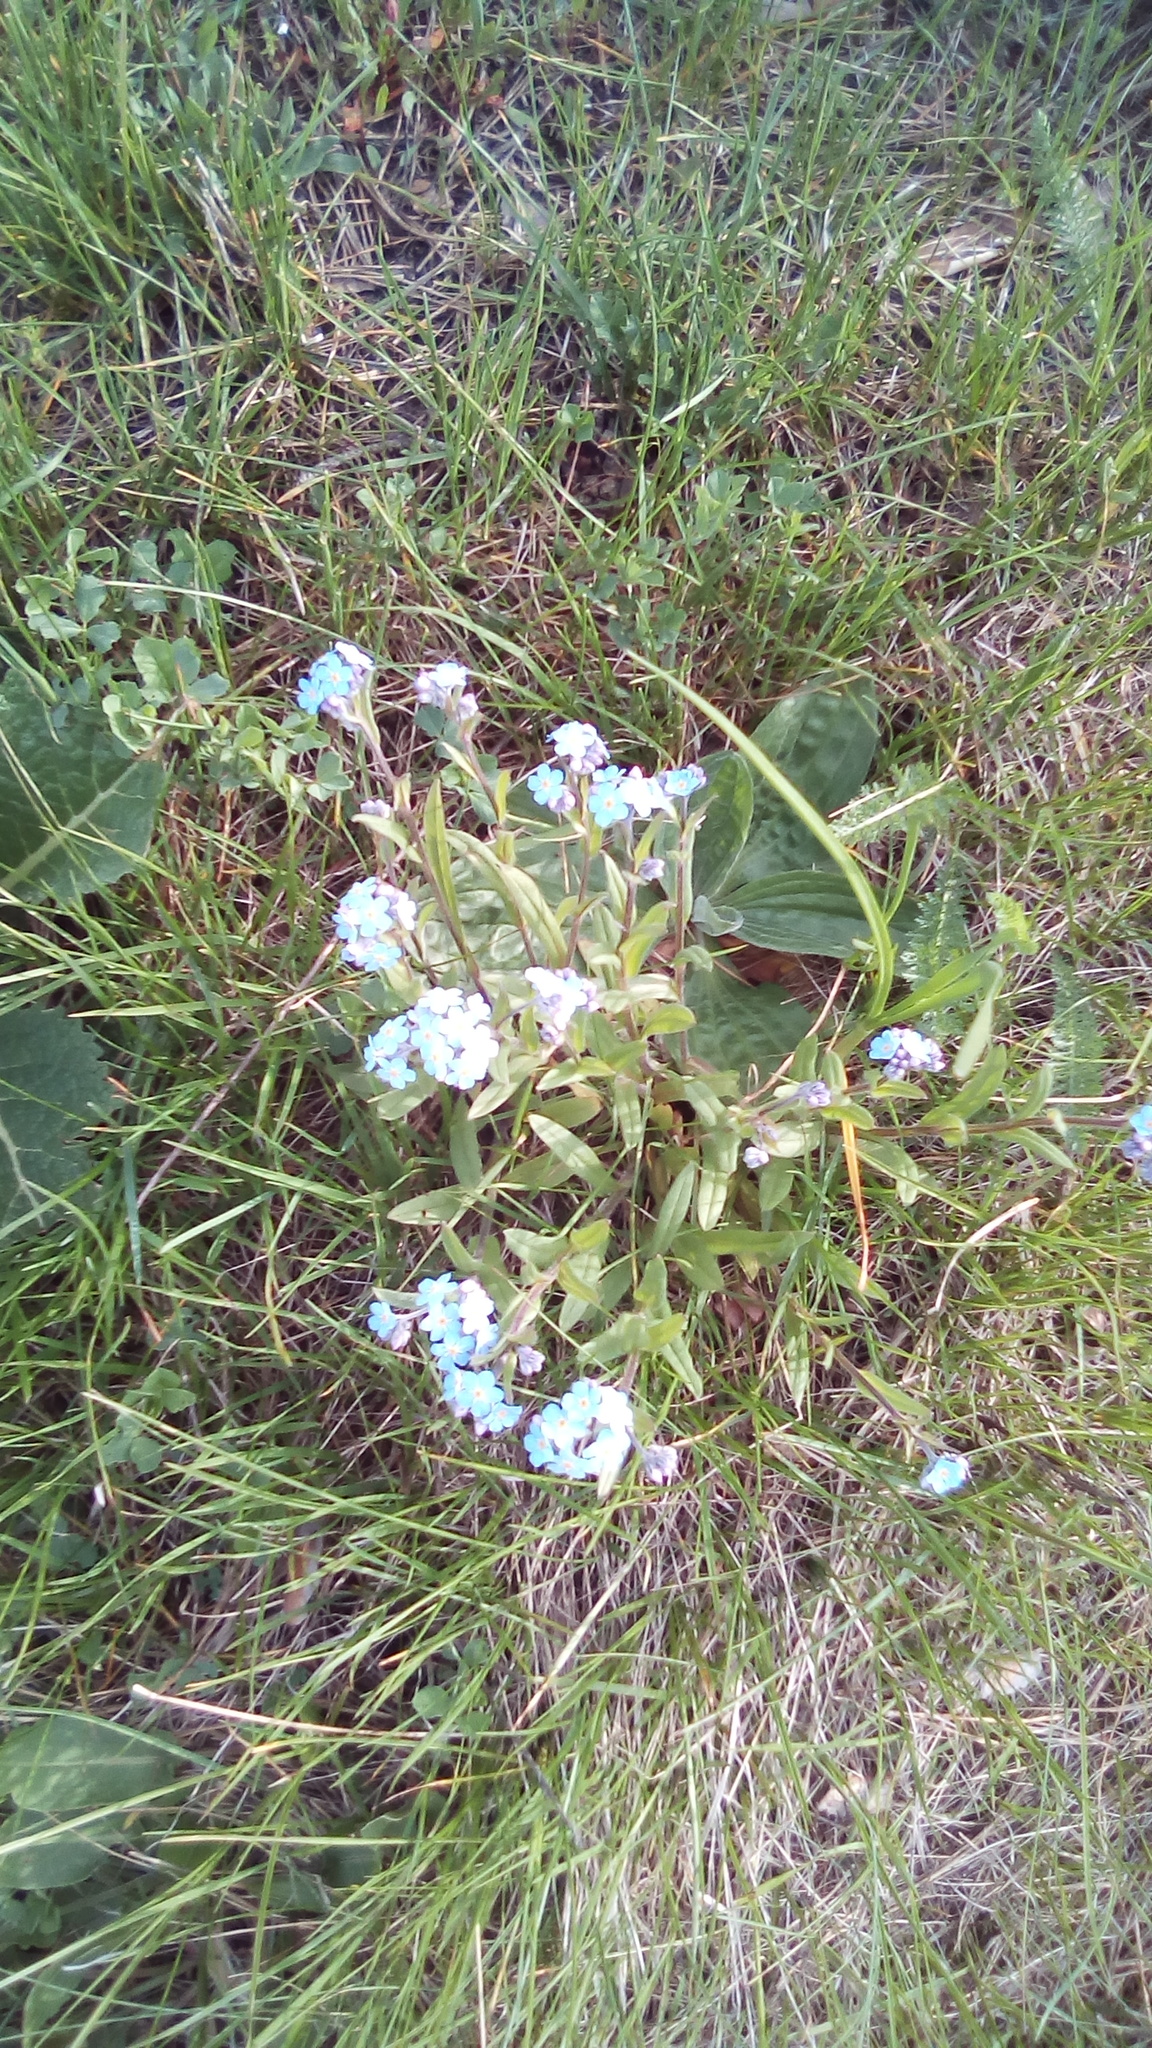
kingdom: Plantae
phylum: Tracheophyta
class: Magnoliopsida
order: Boraginales
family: Boraginaceae
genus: Myosotis
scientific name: Myosotis sylvatica
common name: Wood forget-me-not
